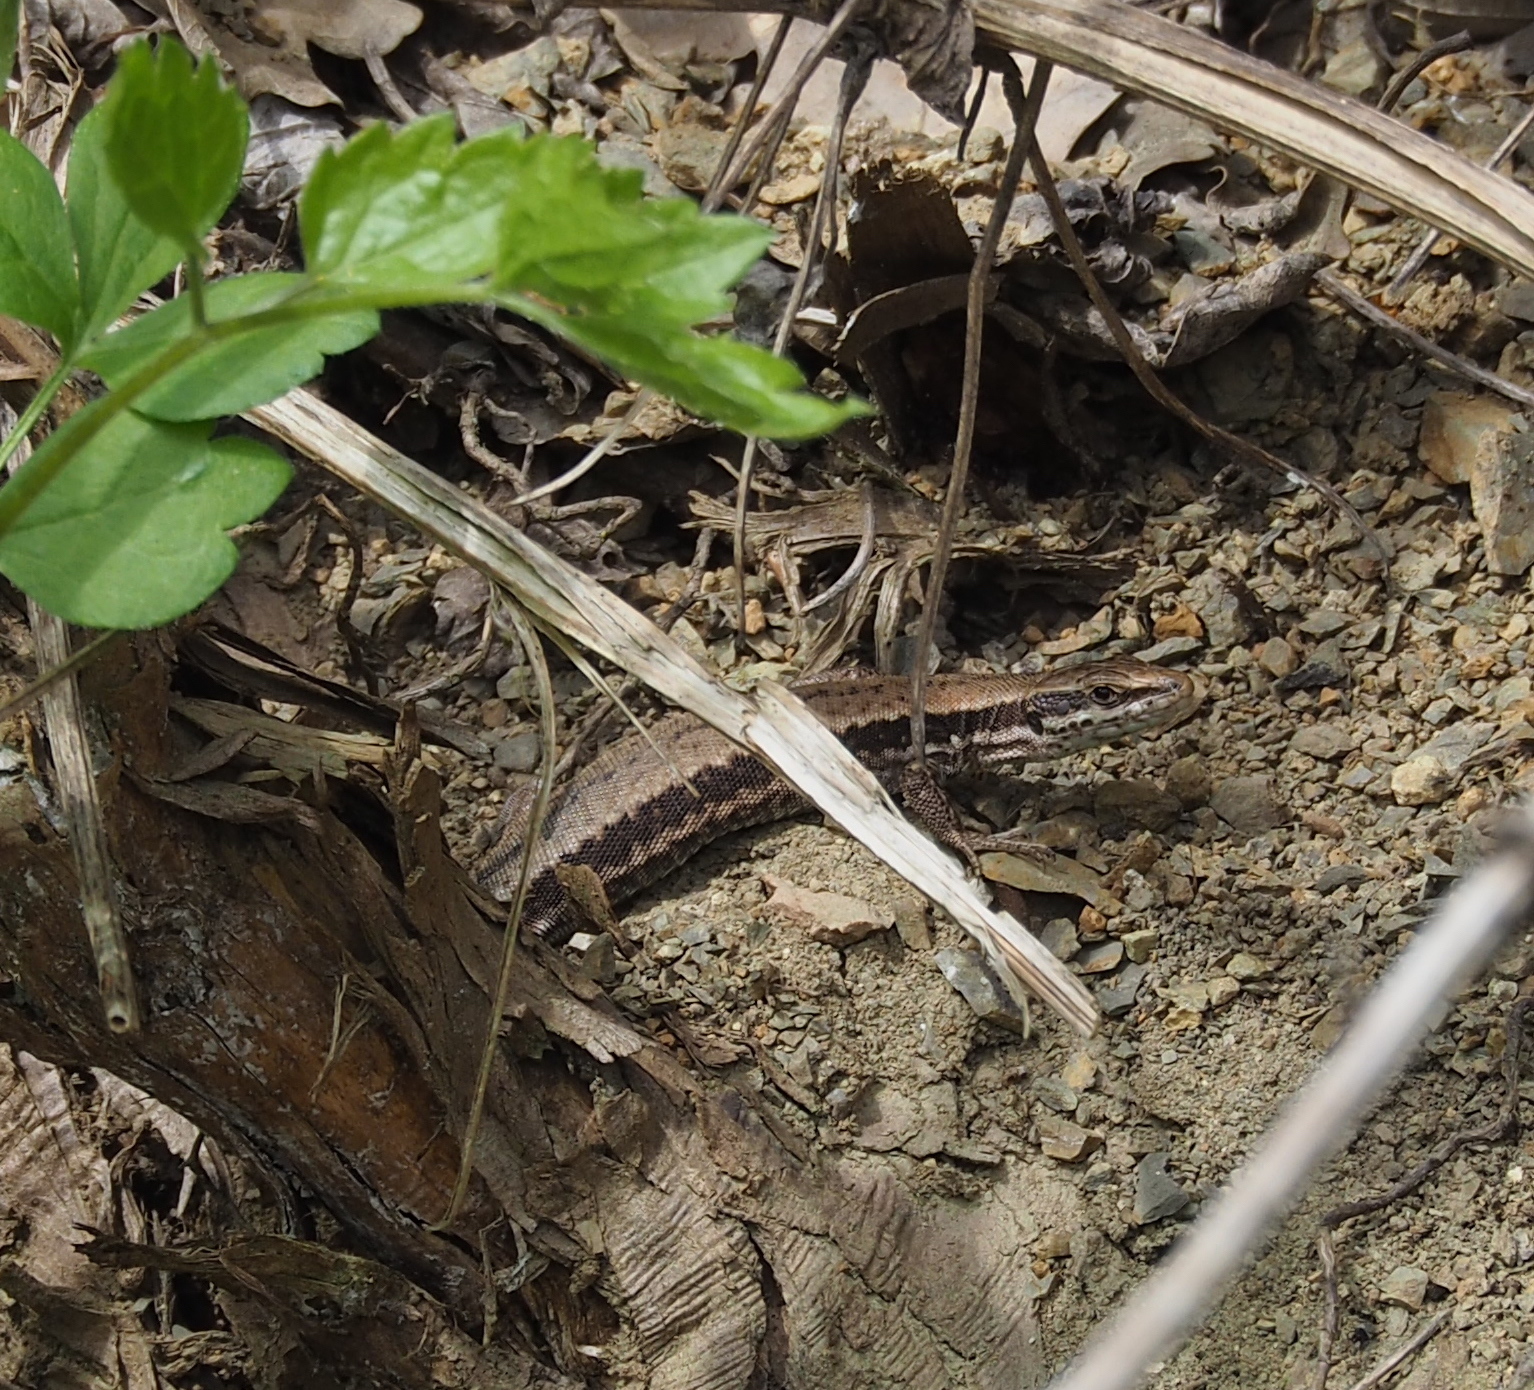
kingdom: Animalia
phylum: Chordata
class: Squamata
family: Lacertidae
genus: Podarcis
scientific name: Podarcis muralis
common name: Common wall lizard
